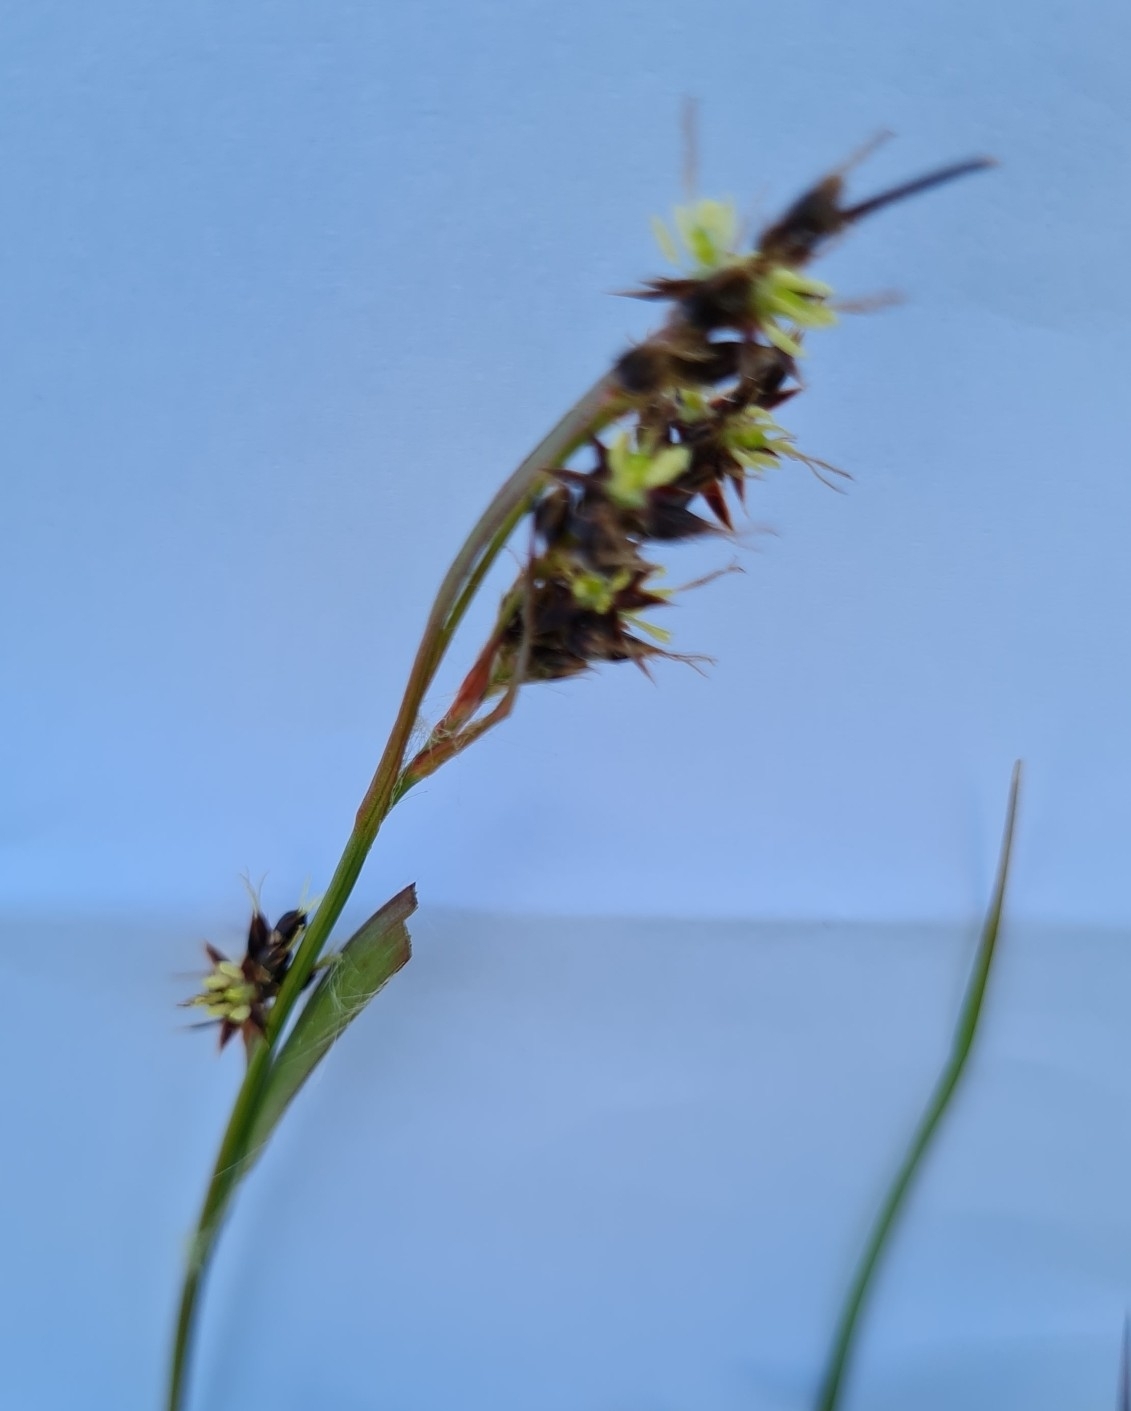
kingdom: Plantae
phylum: Tracheophyta
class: Liliopsida
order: Poales
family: Juncaceae
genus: Luzula
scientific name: Luzula campestris
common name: Field wood-rush
